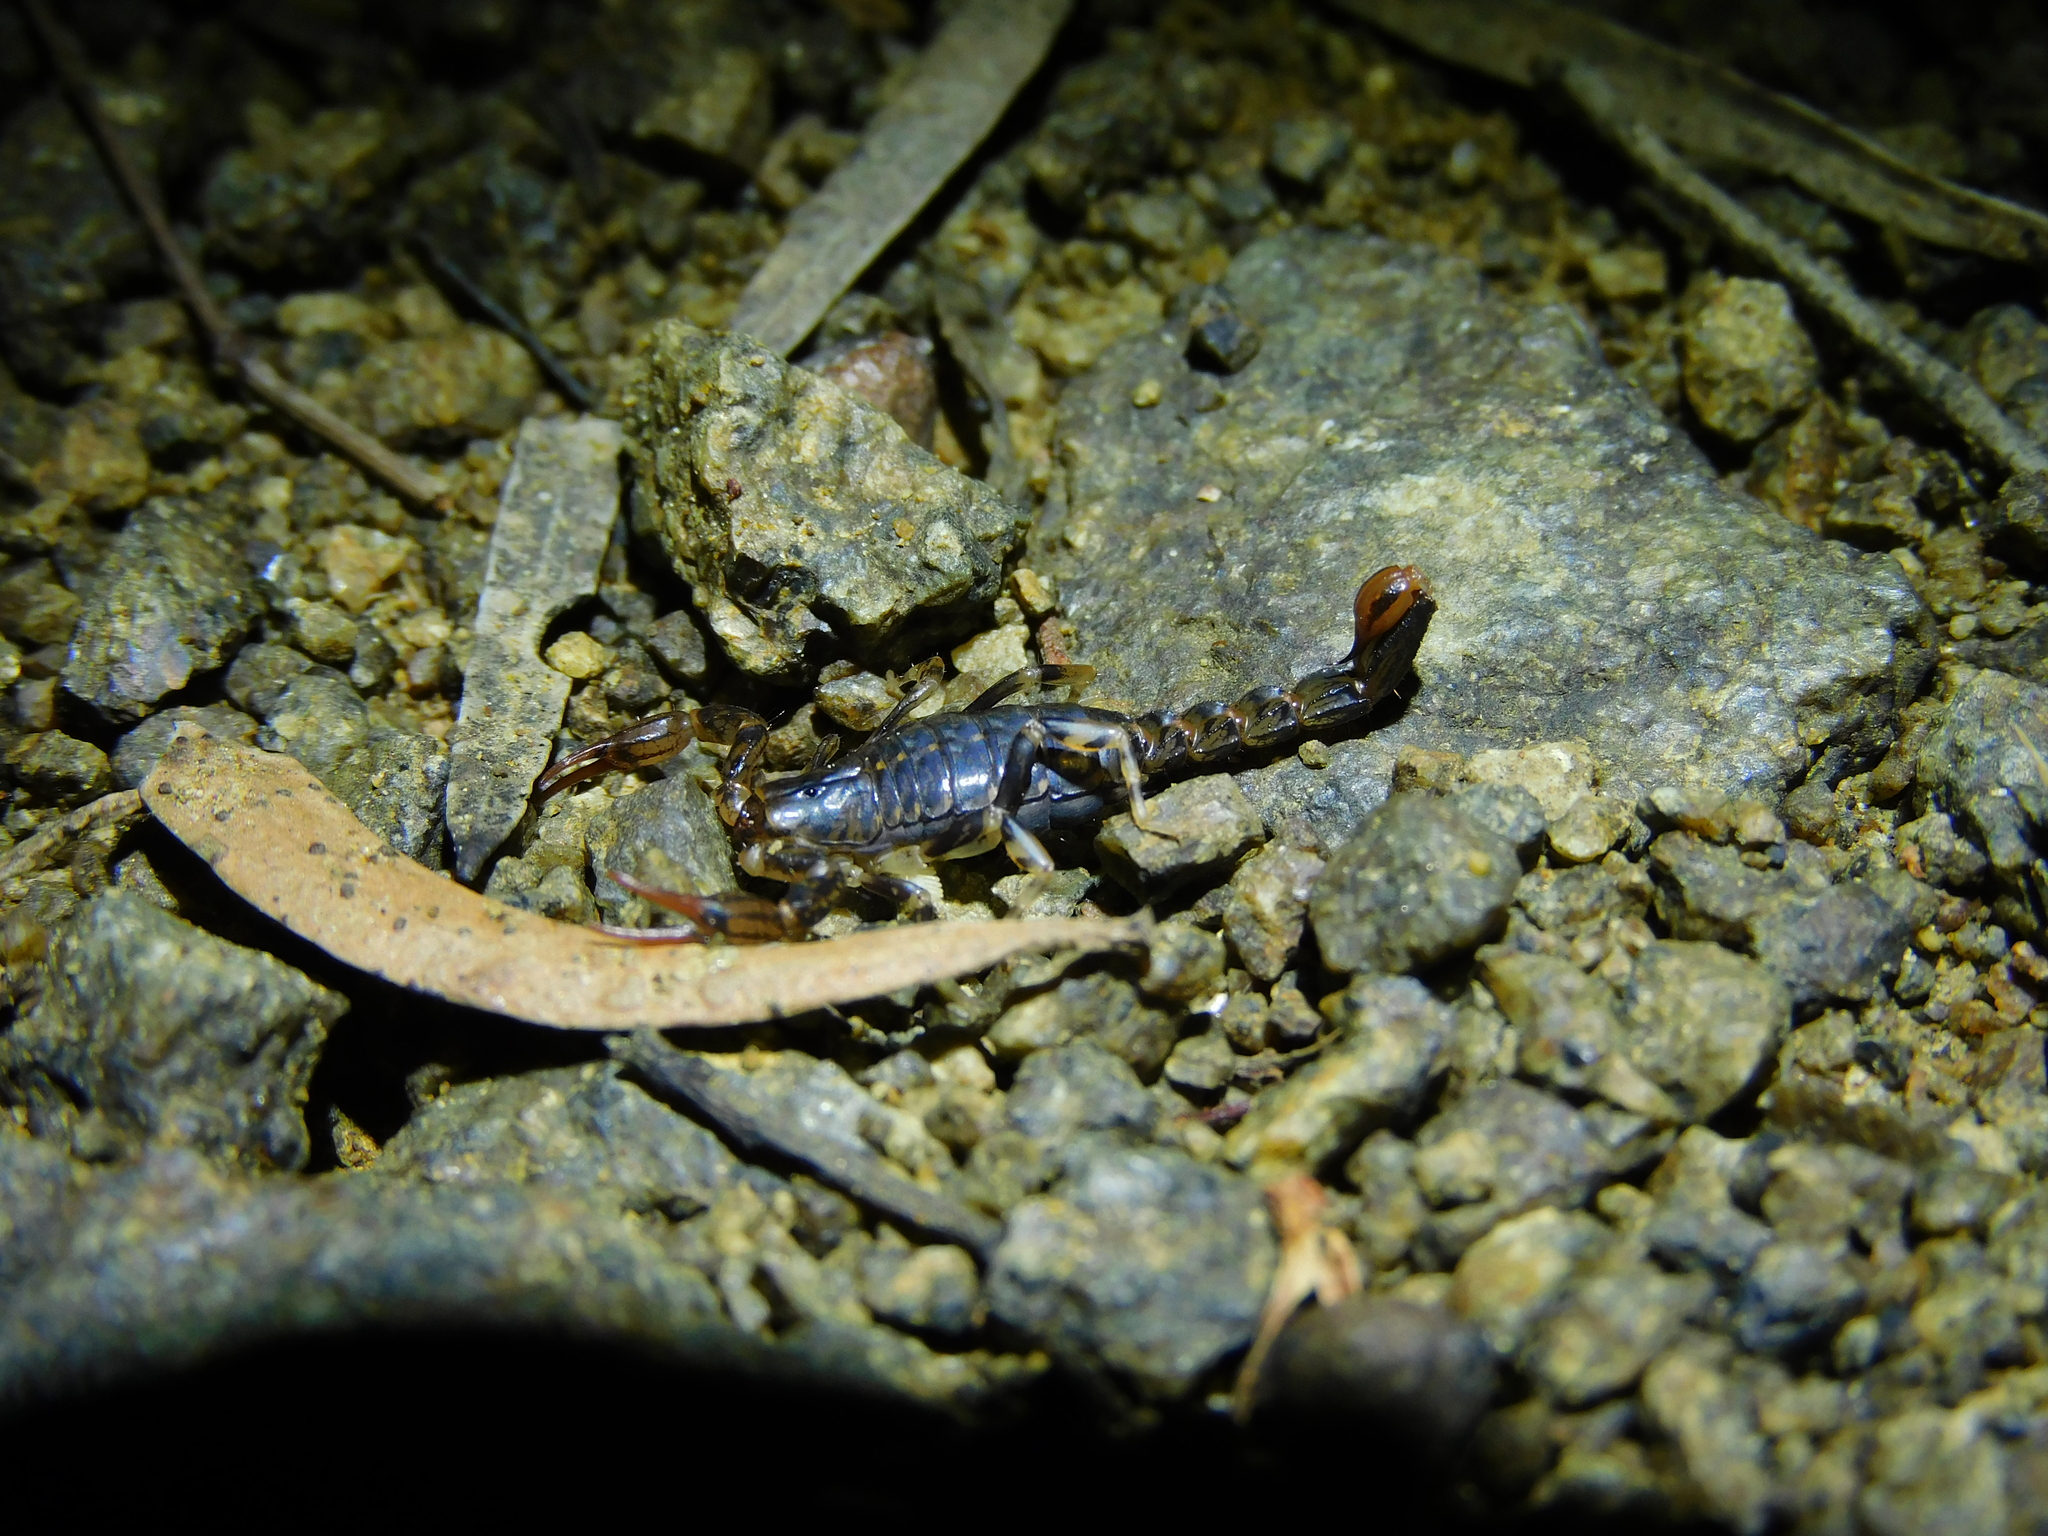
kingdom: Animalia
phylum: Arthropoda
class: Arachnida
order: Scorpiones
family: Bothriuridae
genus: Cercophonius
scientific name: Cercophonius squama
